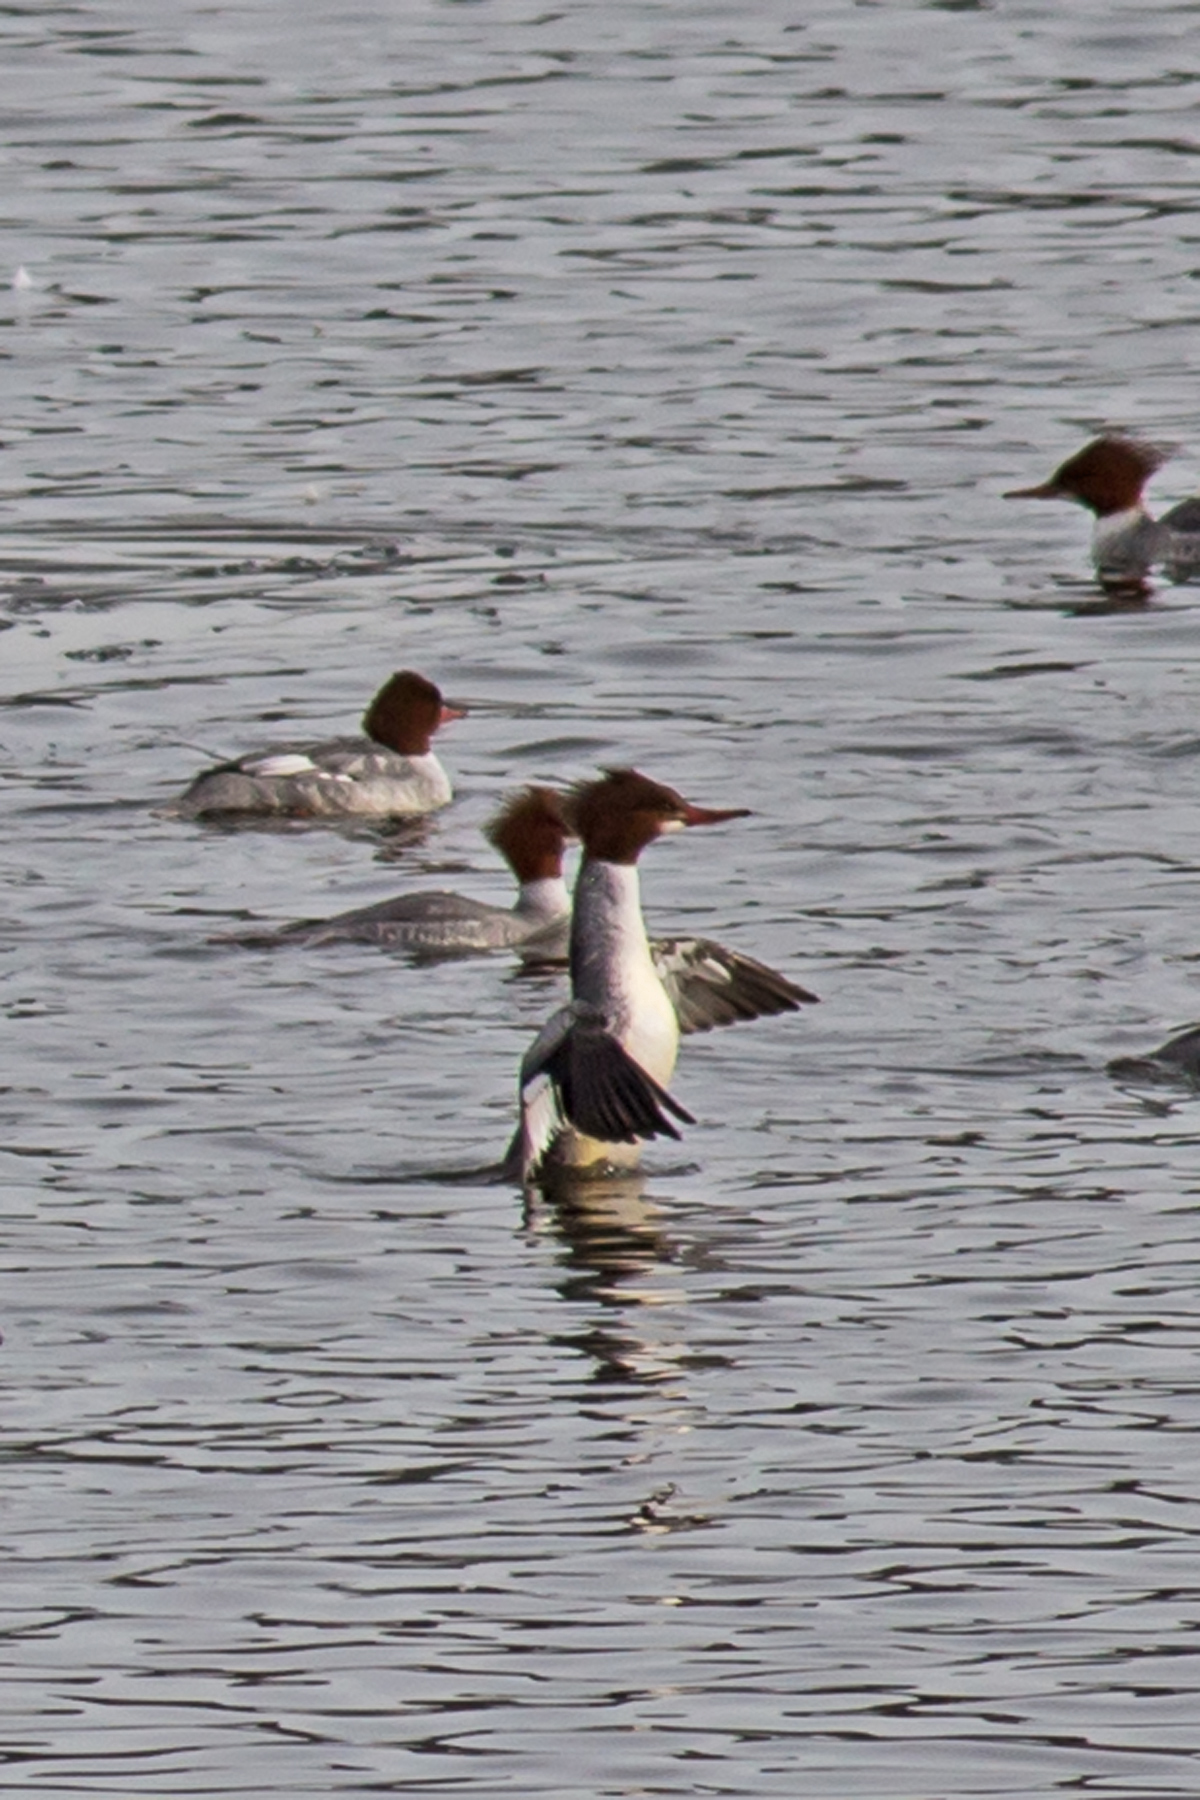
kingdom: Animalia
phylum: Chordata
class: Aves
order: Anseriformes
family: Anatidae
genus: Mergus
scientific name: Mergus merganser
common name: Common merganser
